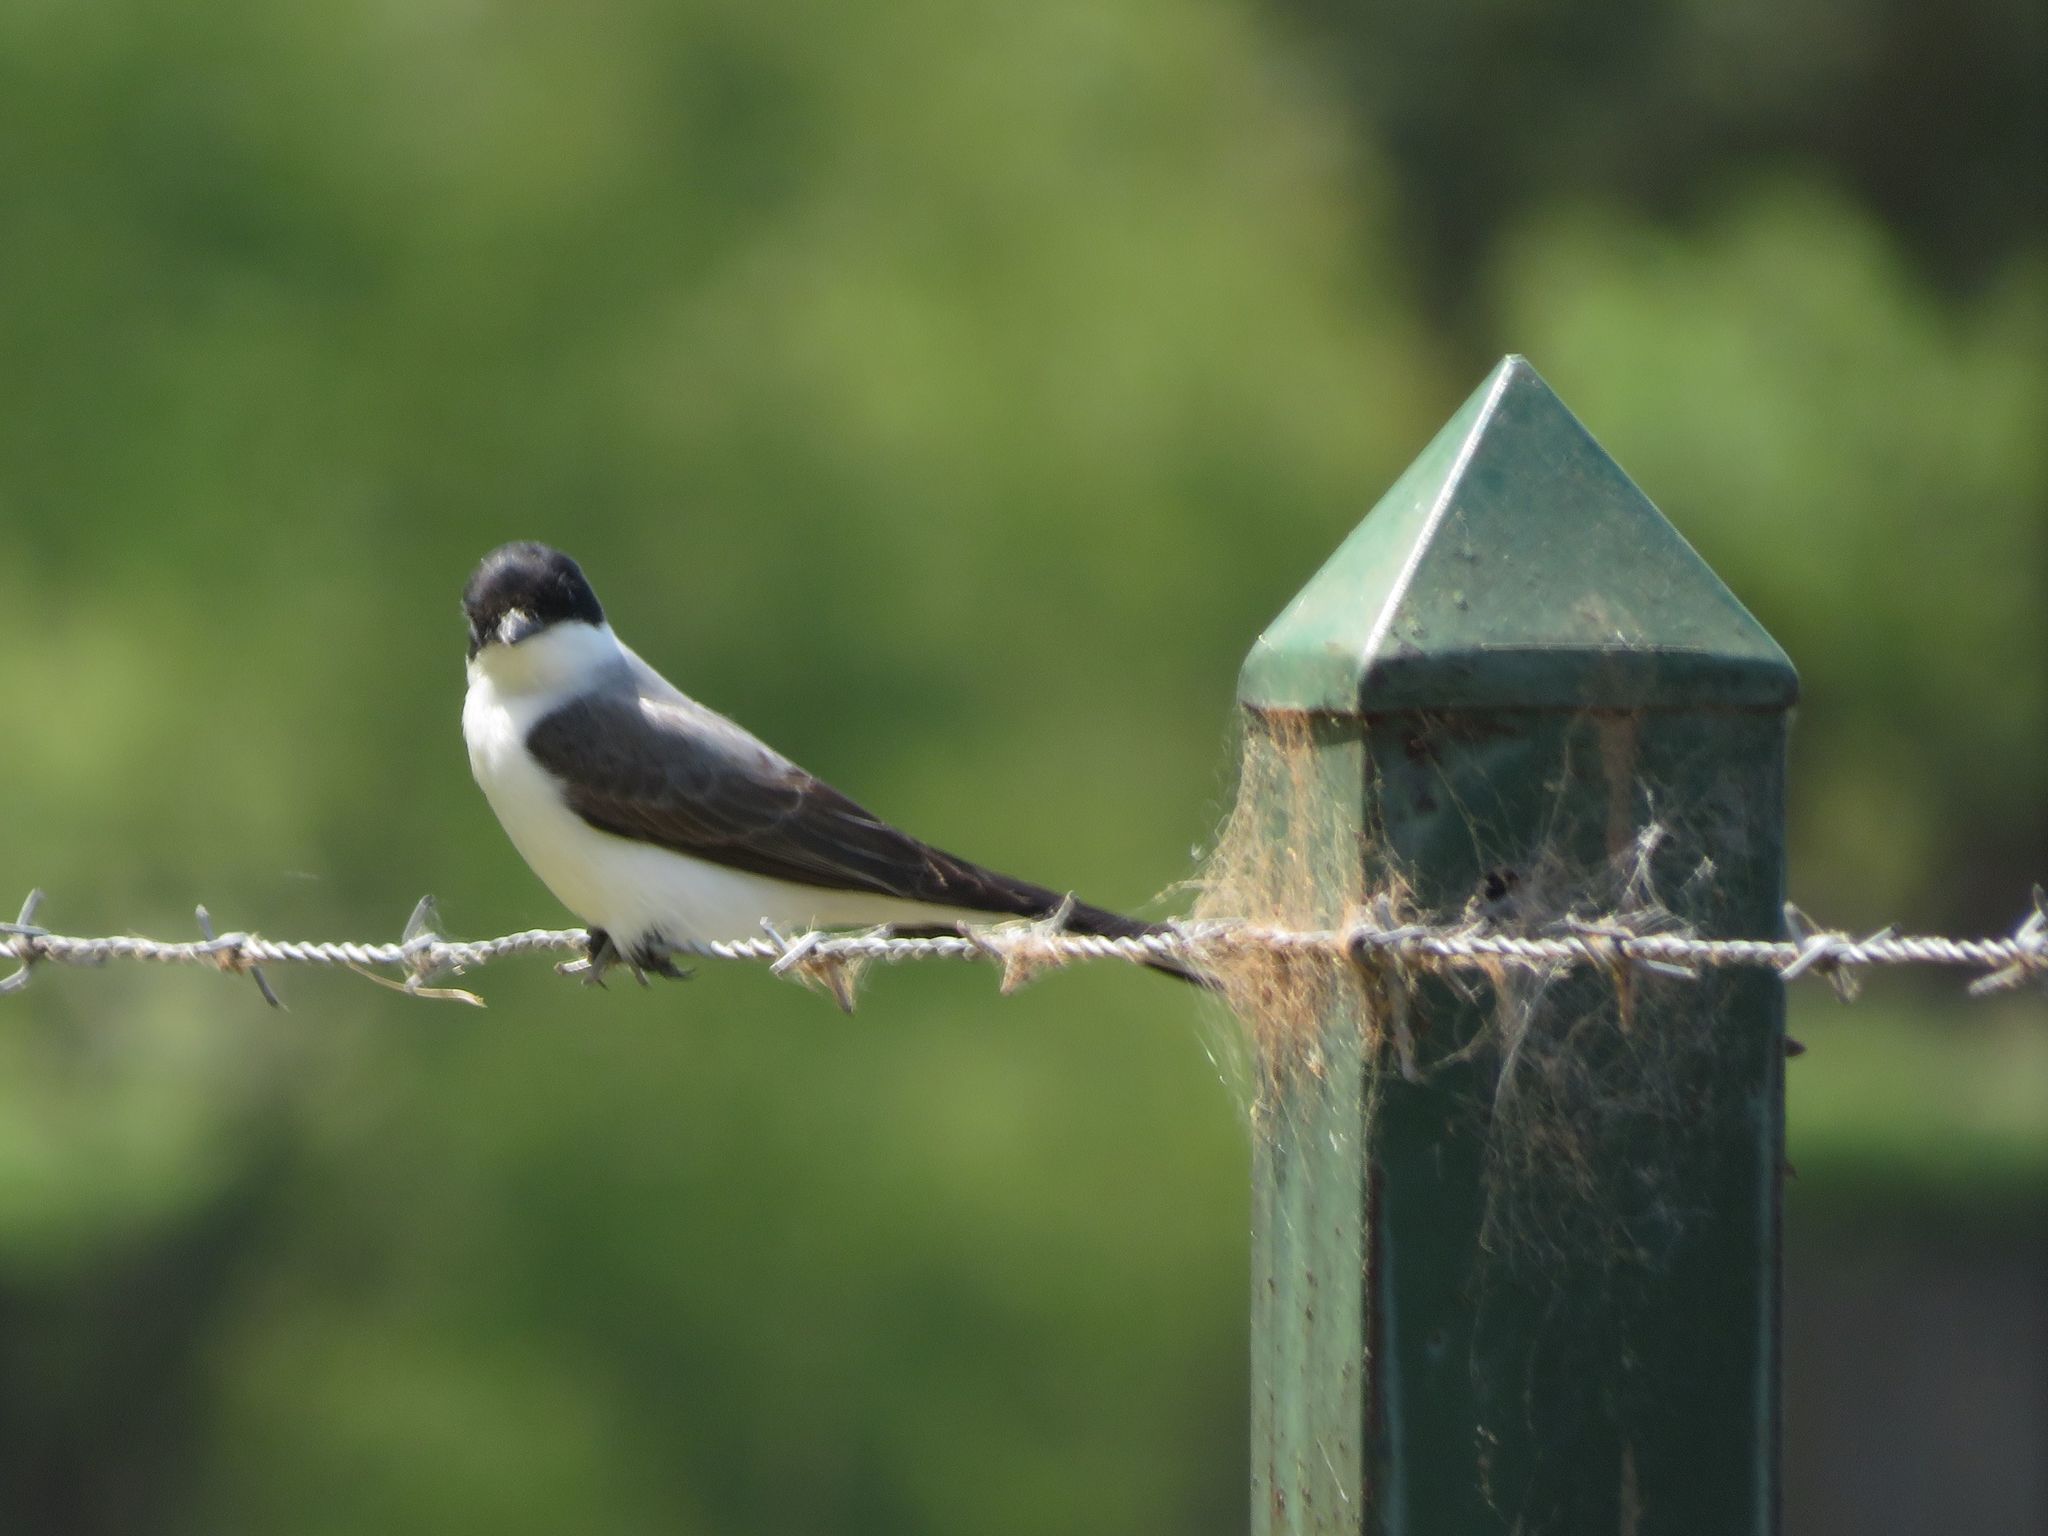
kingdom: Animalia
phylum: Chordata
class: Aves
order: Passeriformes
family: Tyrannidae
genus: Tyrannus
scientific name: Tyrannus savana
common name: Fork-tailed flycatcher
